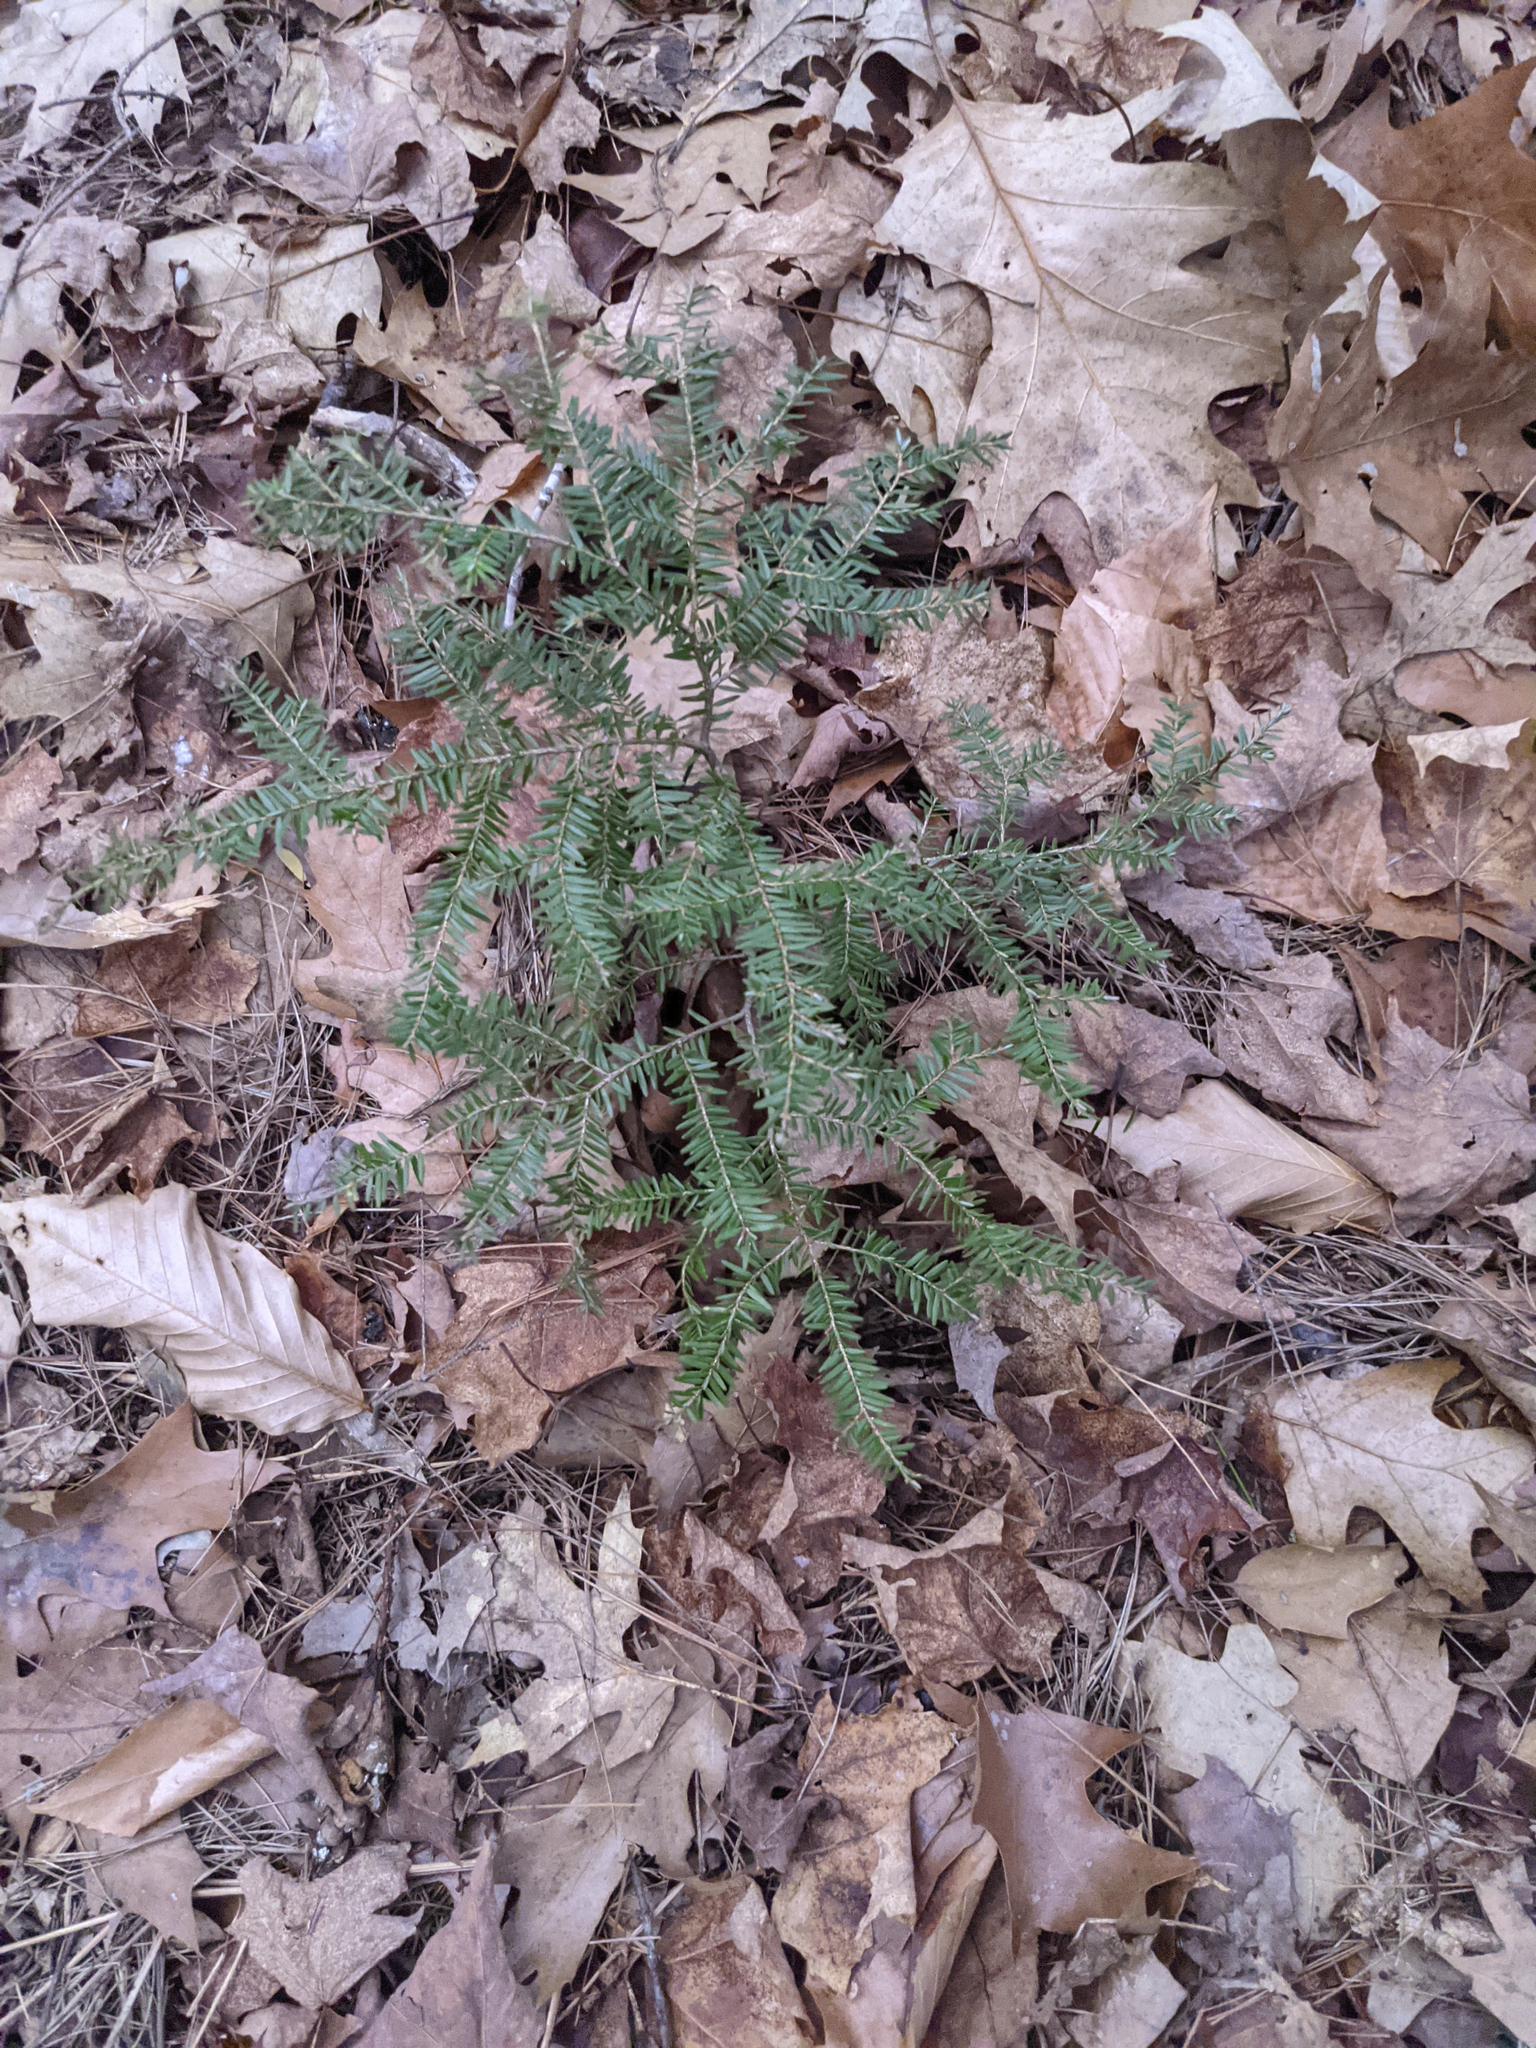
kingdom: Plantae
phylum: Tracheophyta
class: Pinopsida
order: Pinales
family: Pinaceae
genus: Tsuga
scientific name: Tsuga canadensis
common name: Eastern hemlock
